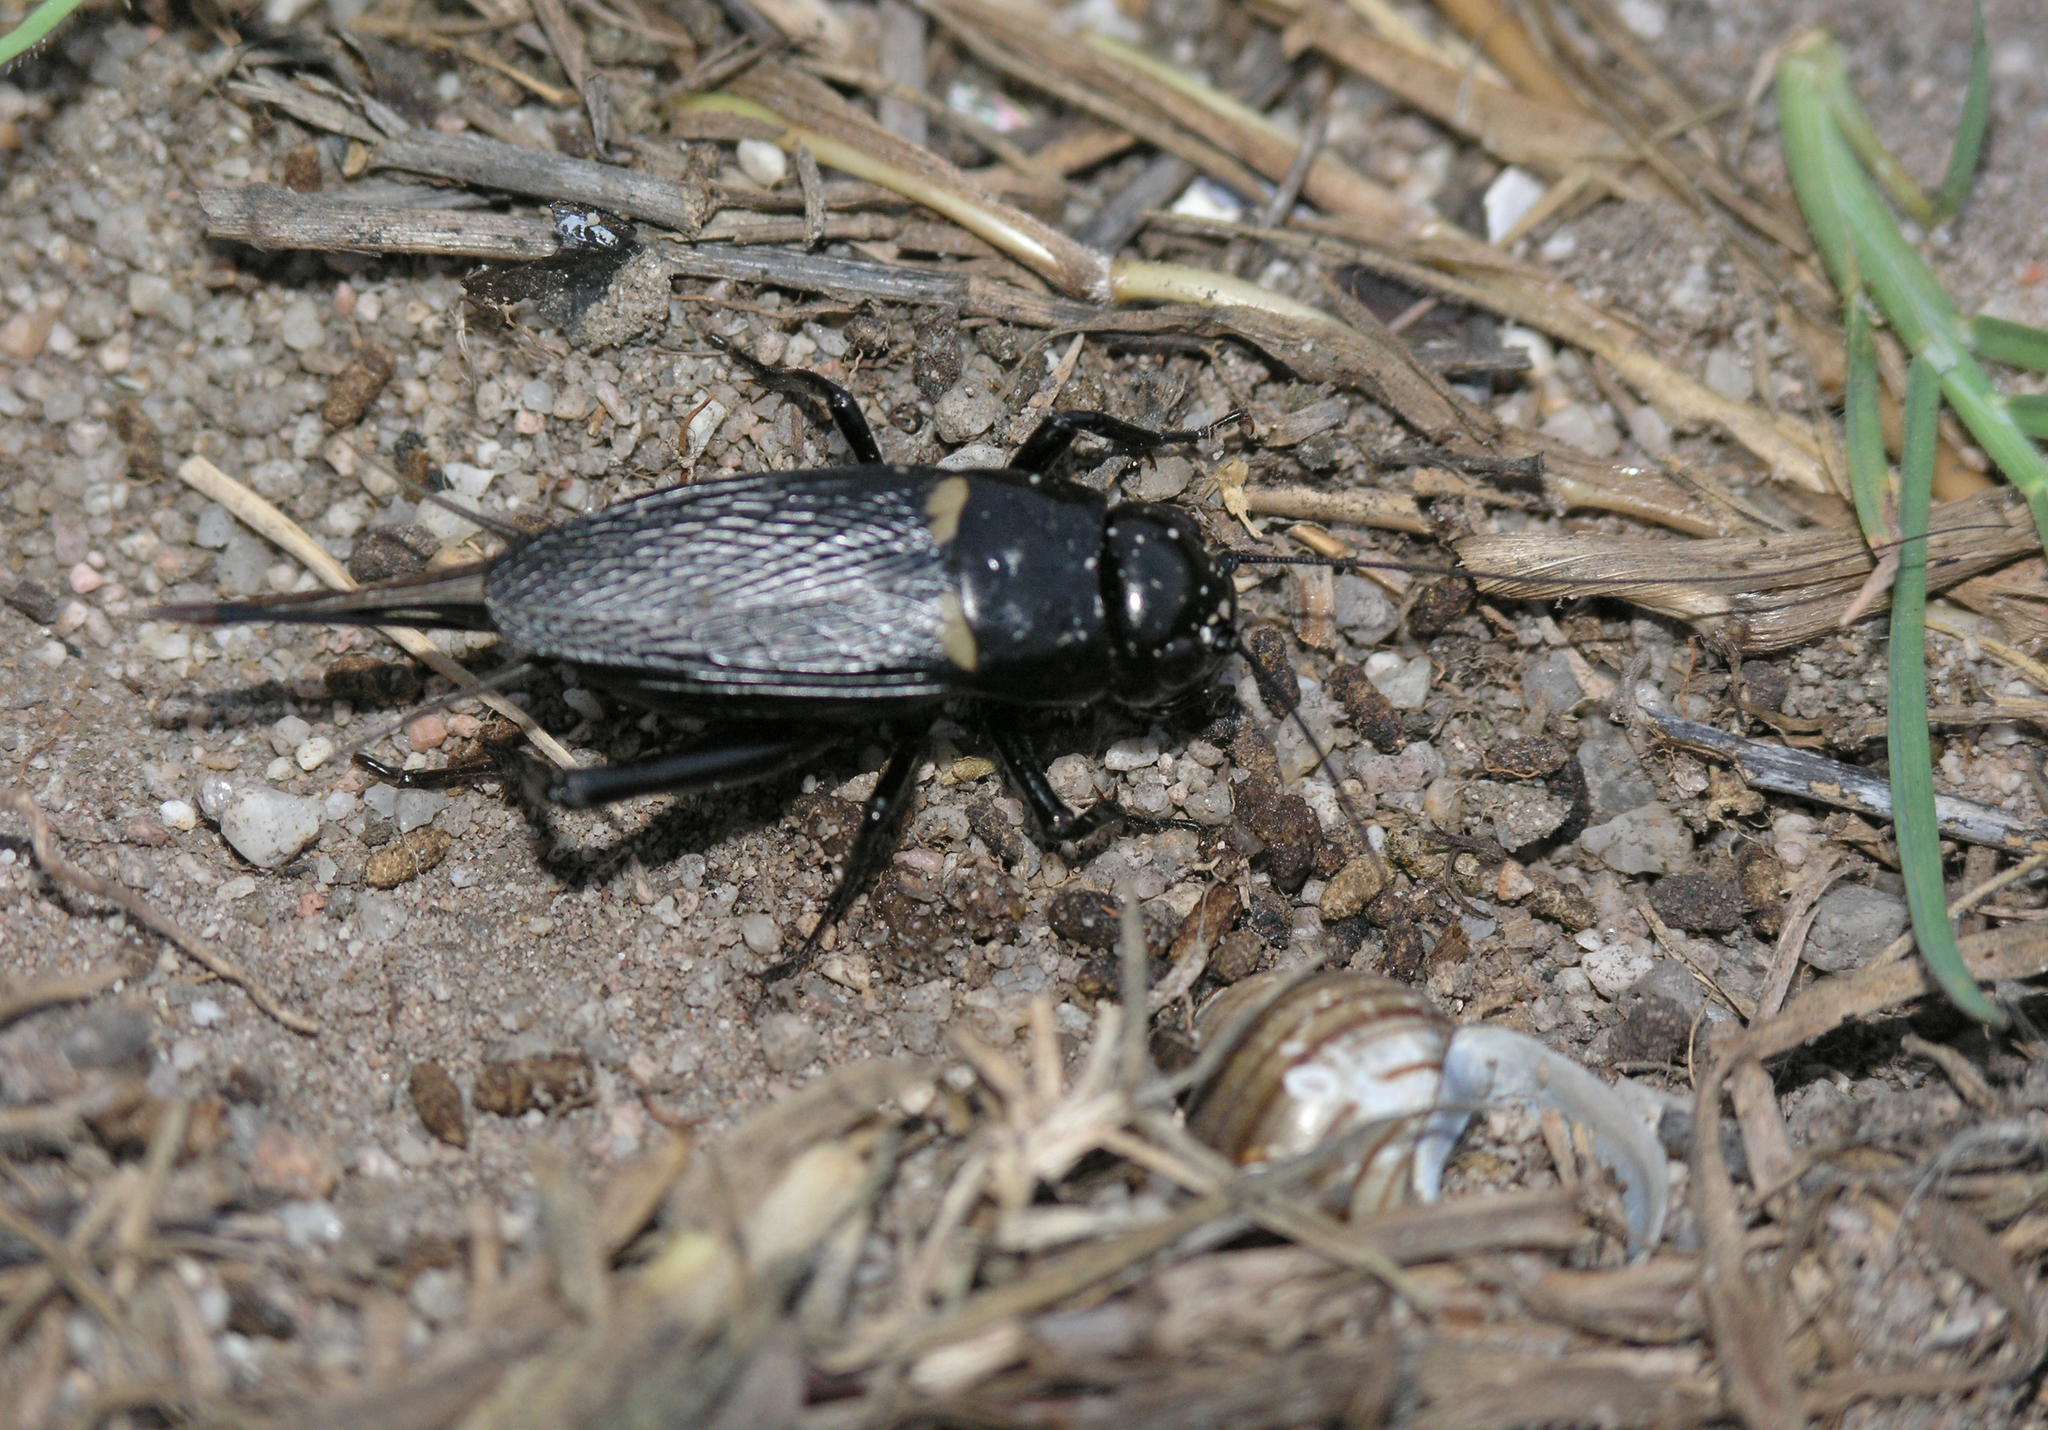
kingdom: Animalia
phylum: Arthropoda
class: Insecta
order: Orthoptera
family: Gryllidae
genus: Gryllus
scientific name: Gryllus bimaculatus
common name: Two-spotted cricket
